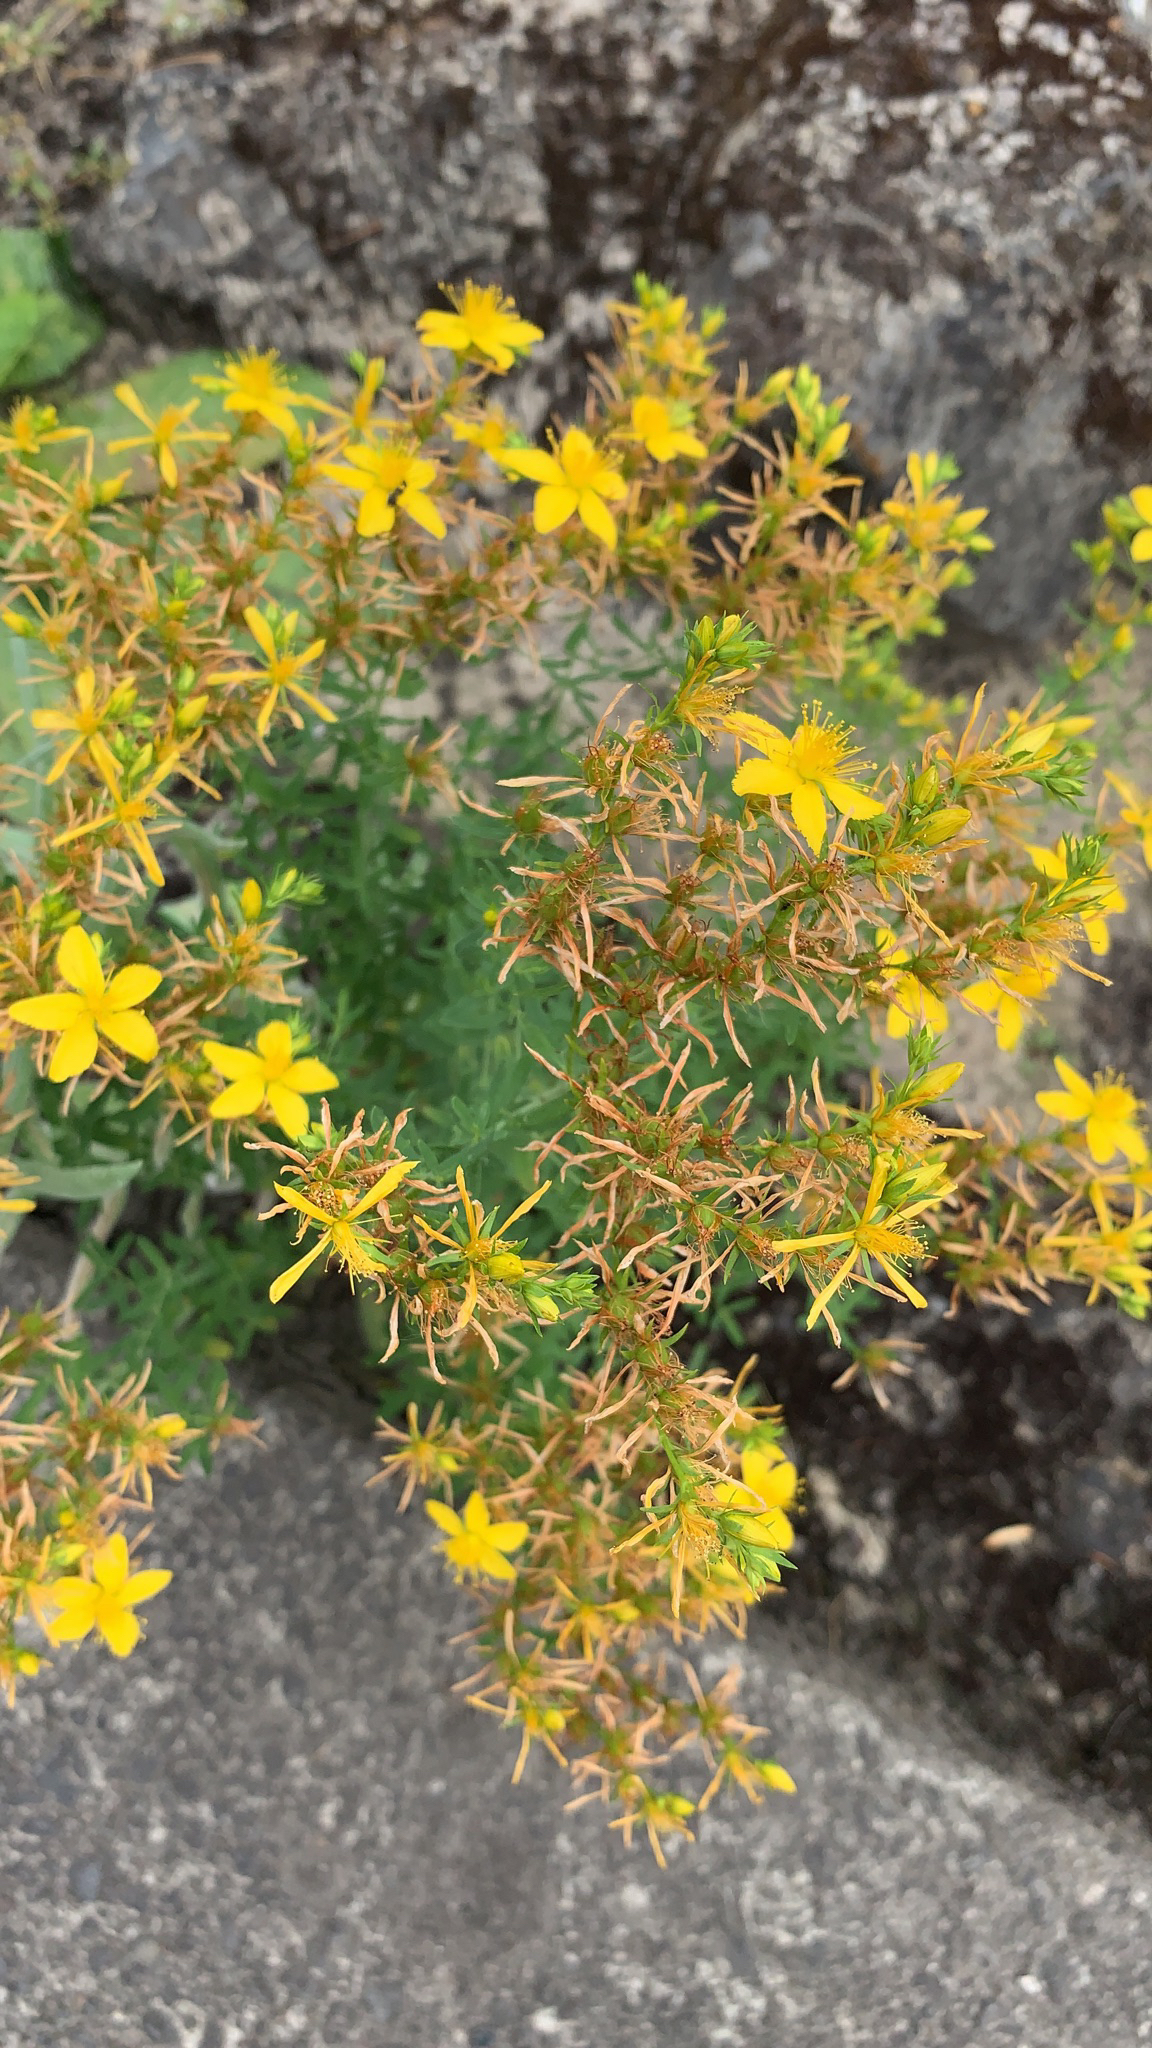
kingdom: Plantae
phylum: Tracheophyta
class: Magnoliopsida
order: Malpighiales
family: Hypericaceae
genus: Hypericum
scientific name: Hypericum perforatum
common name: Common st. johnswort
